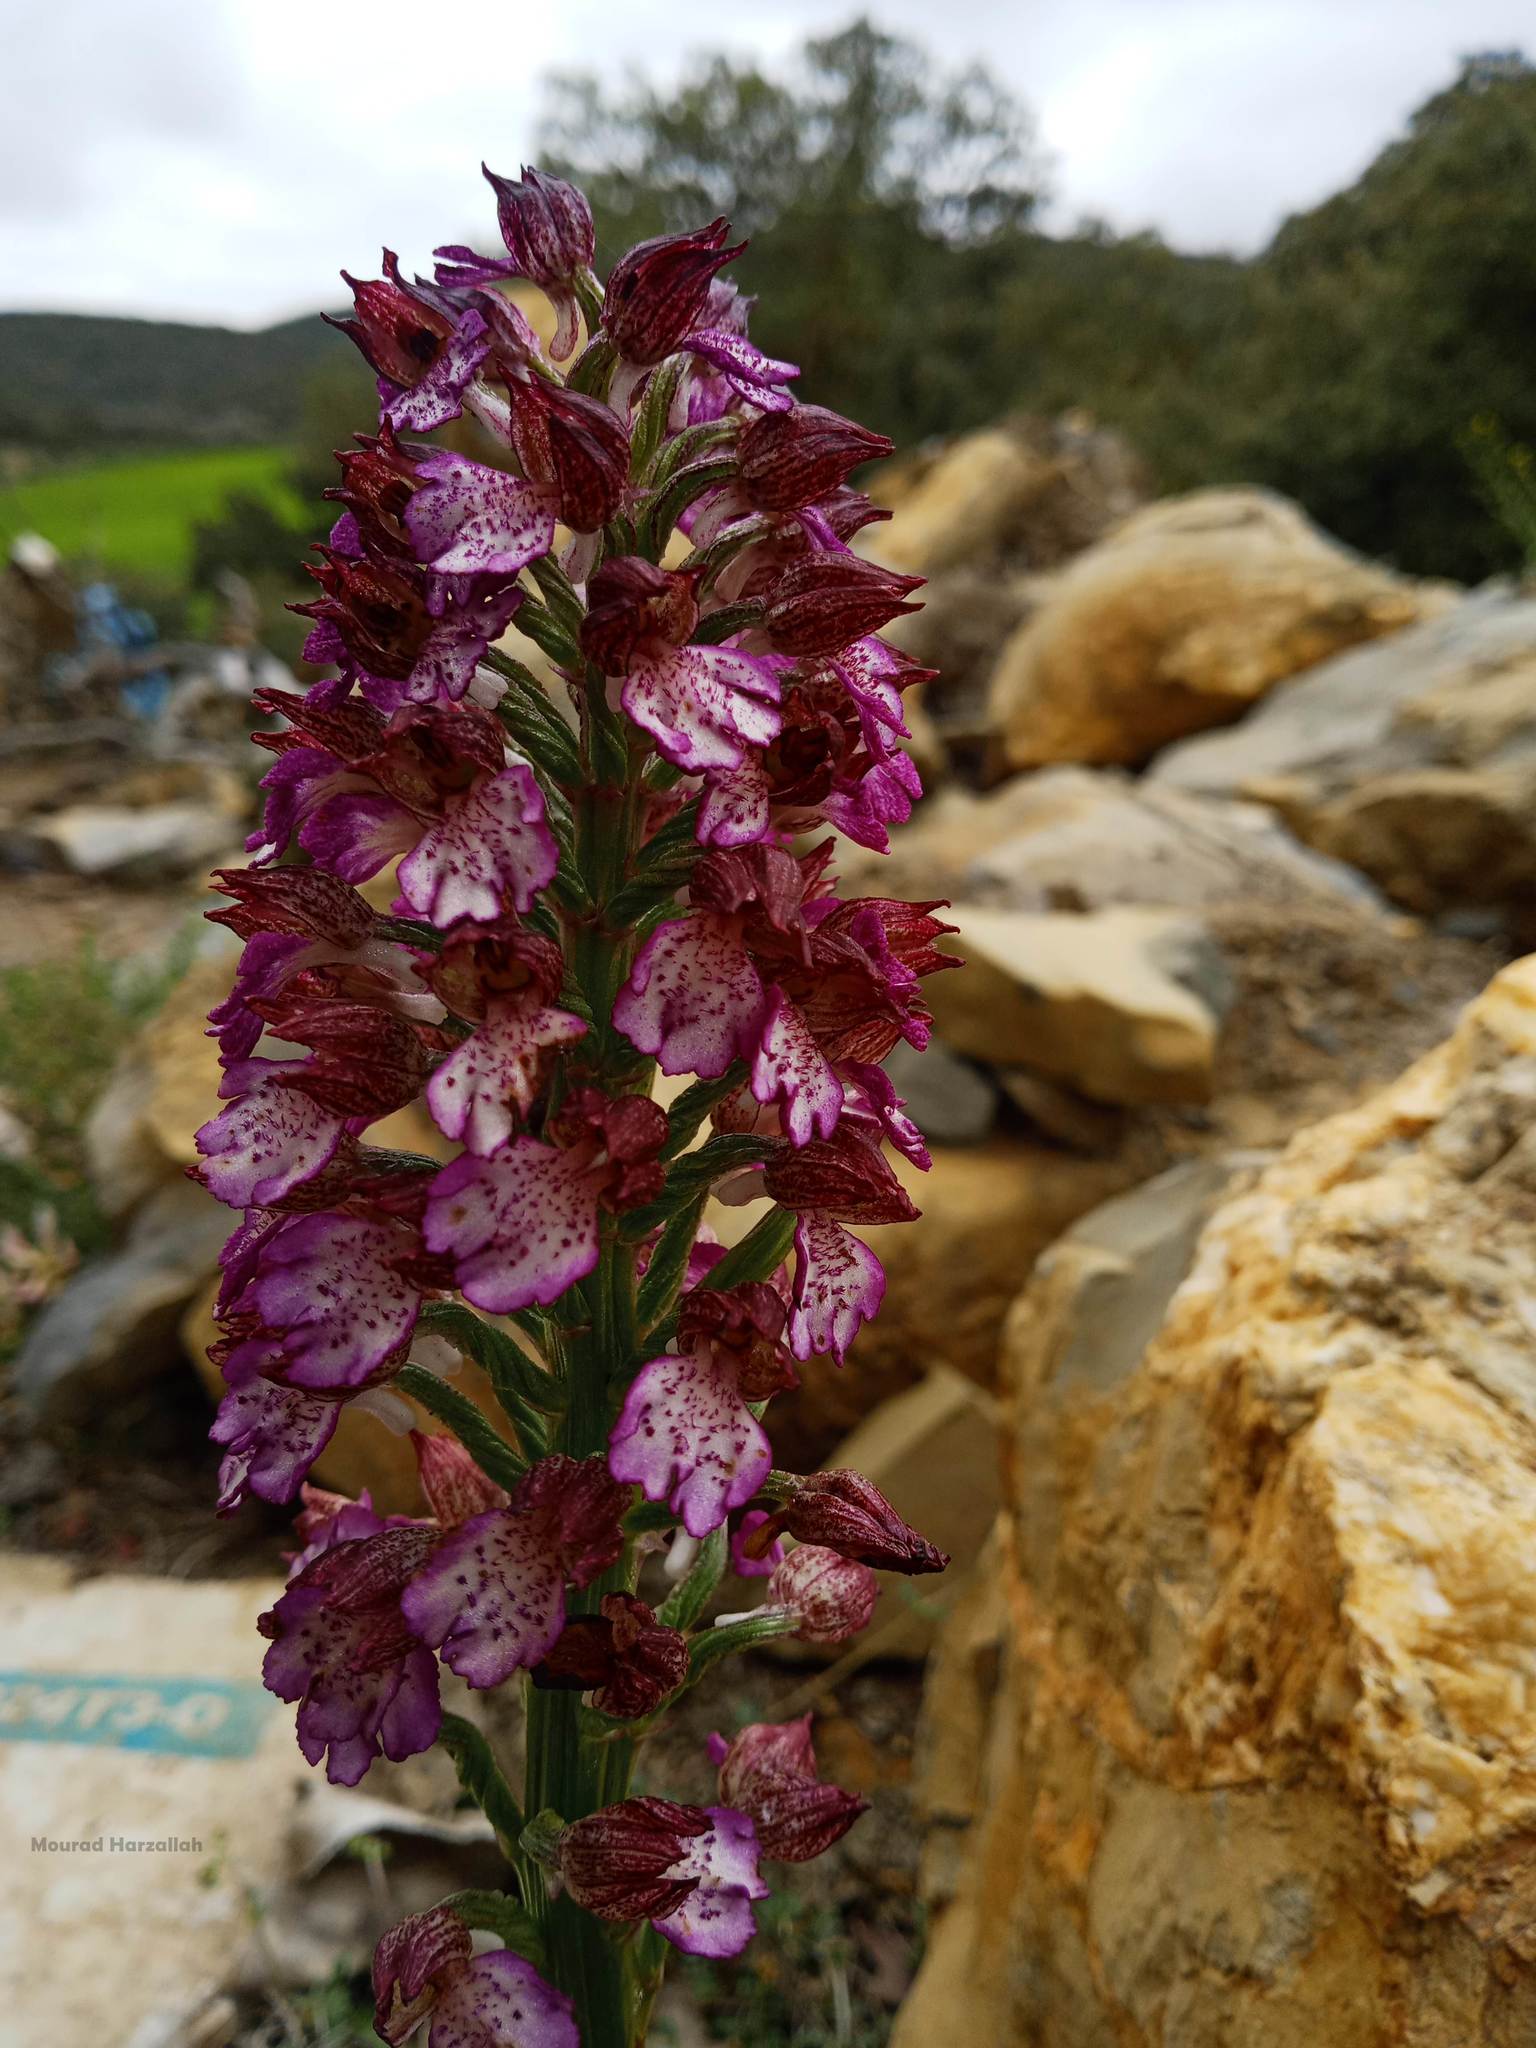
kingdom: Plantae
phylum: Tracheophyta
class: Liliopsida
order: Asparagales
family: Orchidaceae
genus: Orchis
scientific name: Orchis purpurea
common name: Lady orchid
